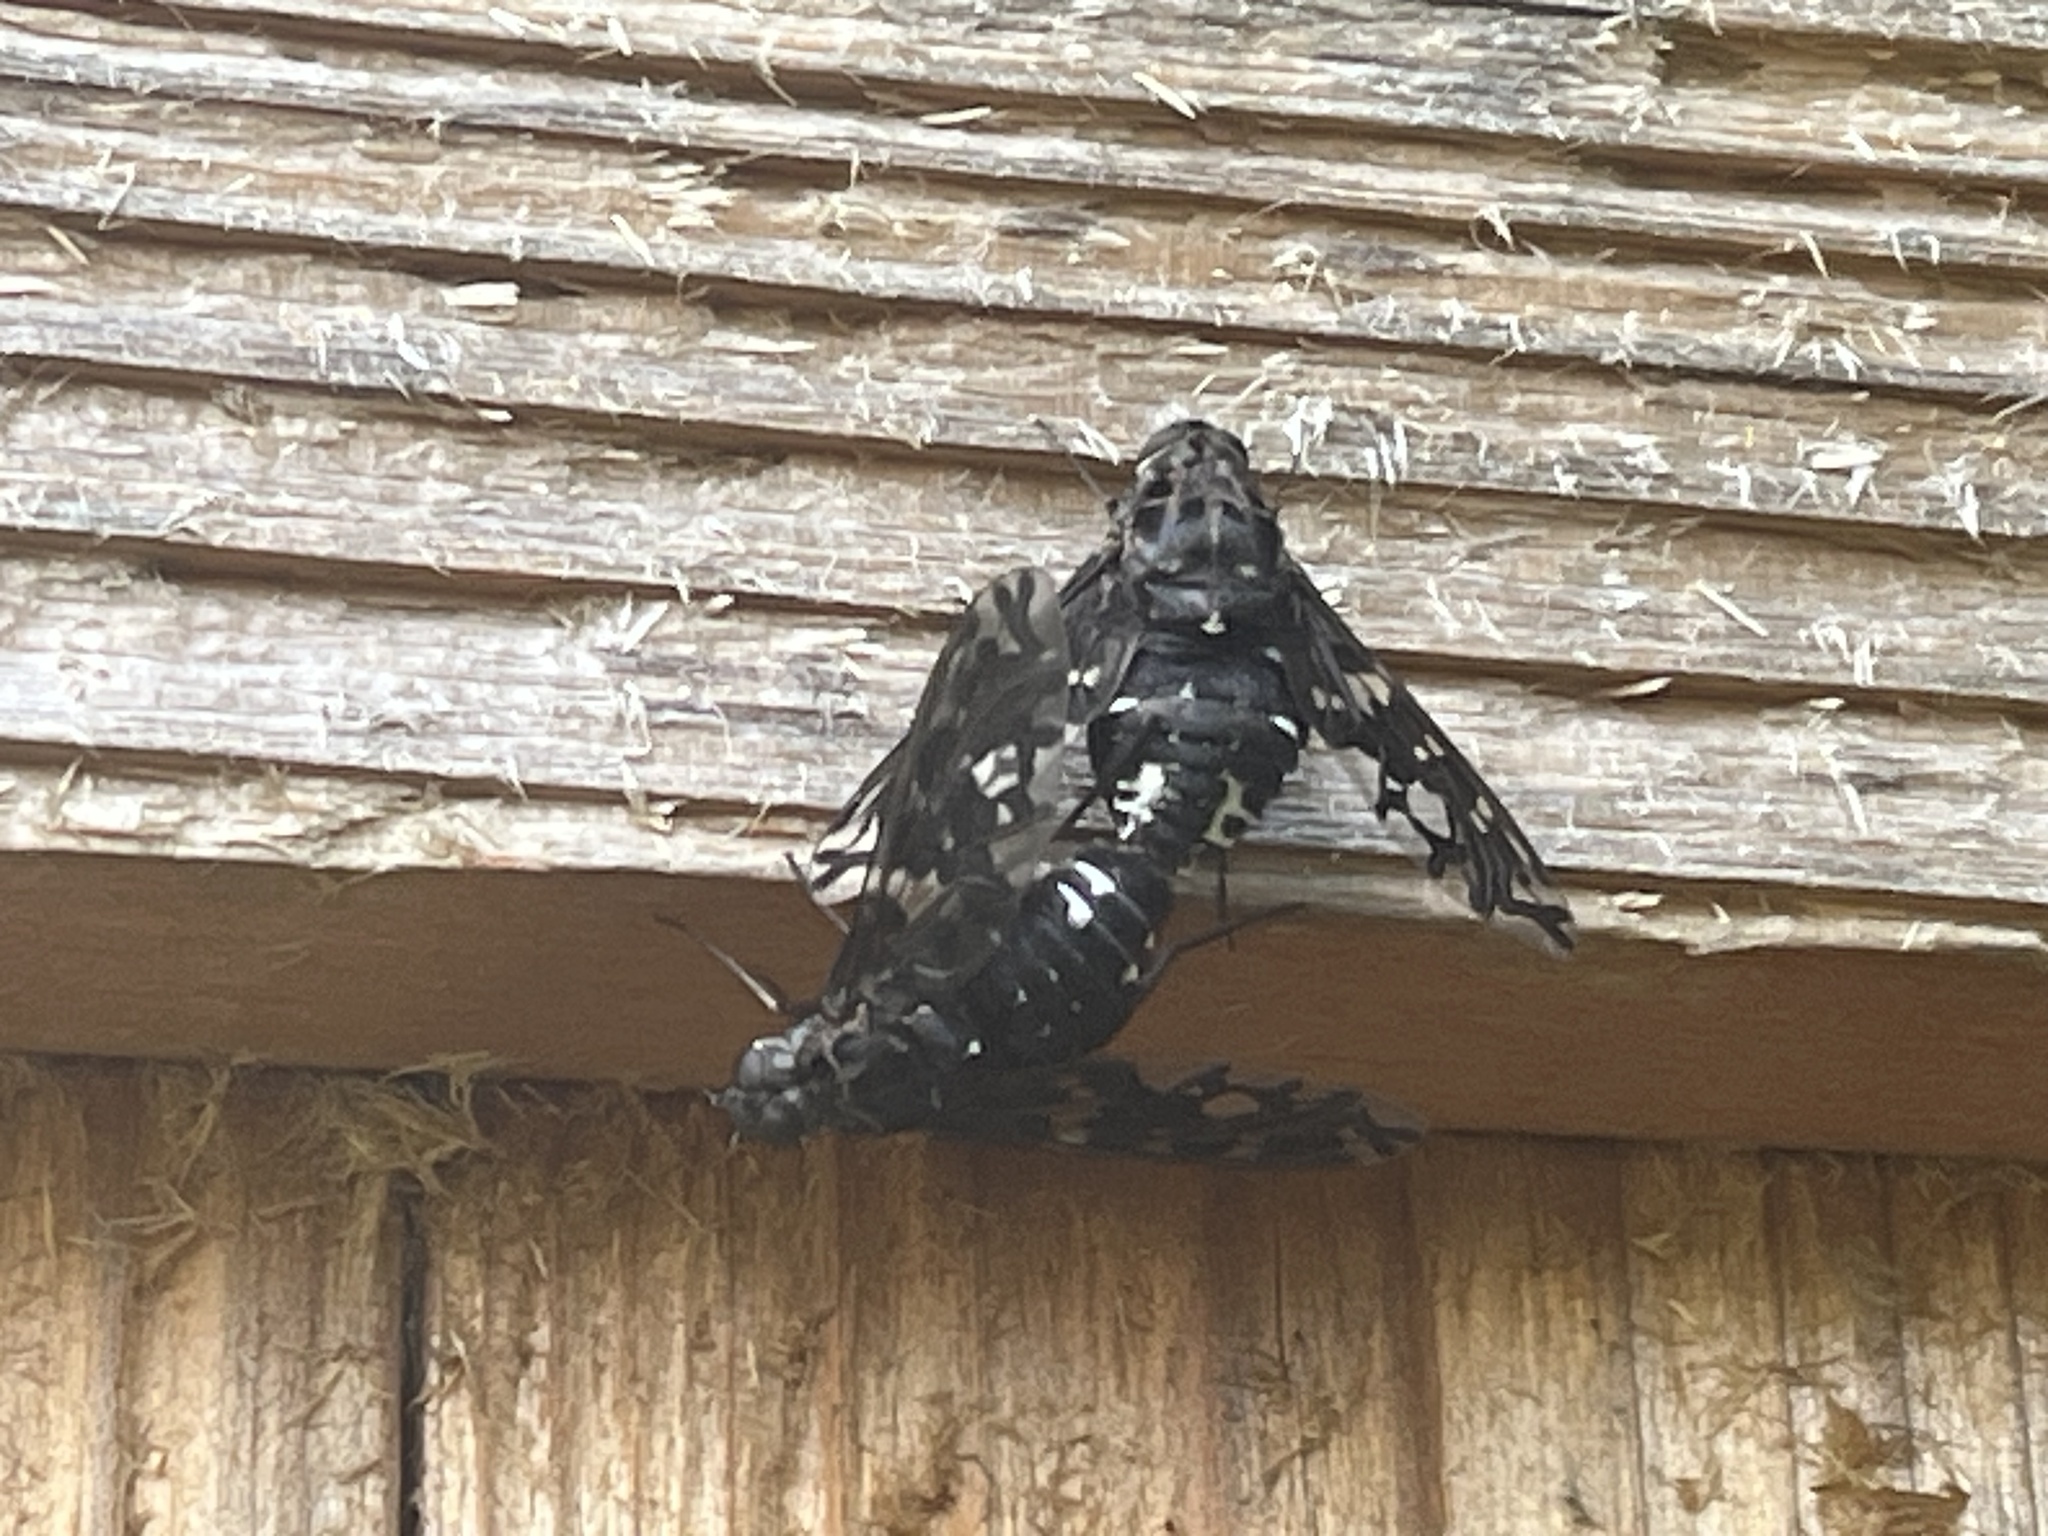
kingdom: Animalia
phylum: Arthropoda
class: Insecta
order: Diptera
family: Bombyliidae
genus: Xenox
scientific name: Xenox tigrinus
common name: Tiger bee fly
